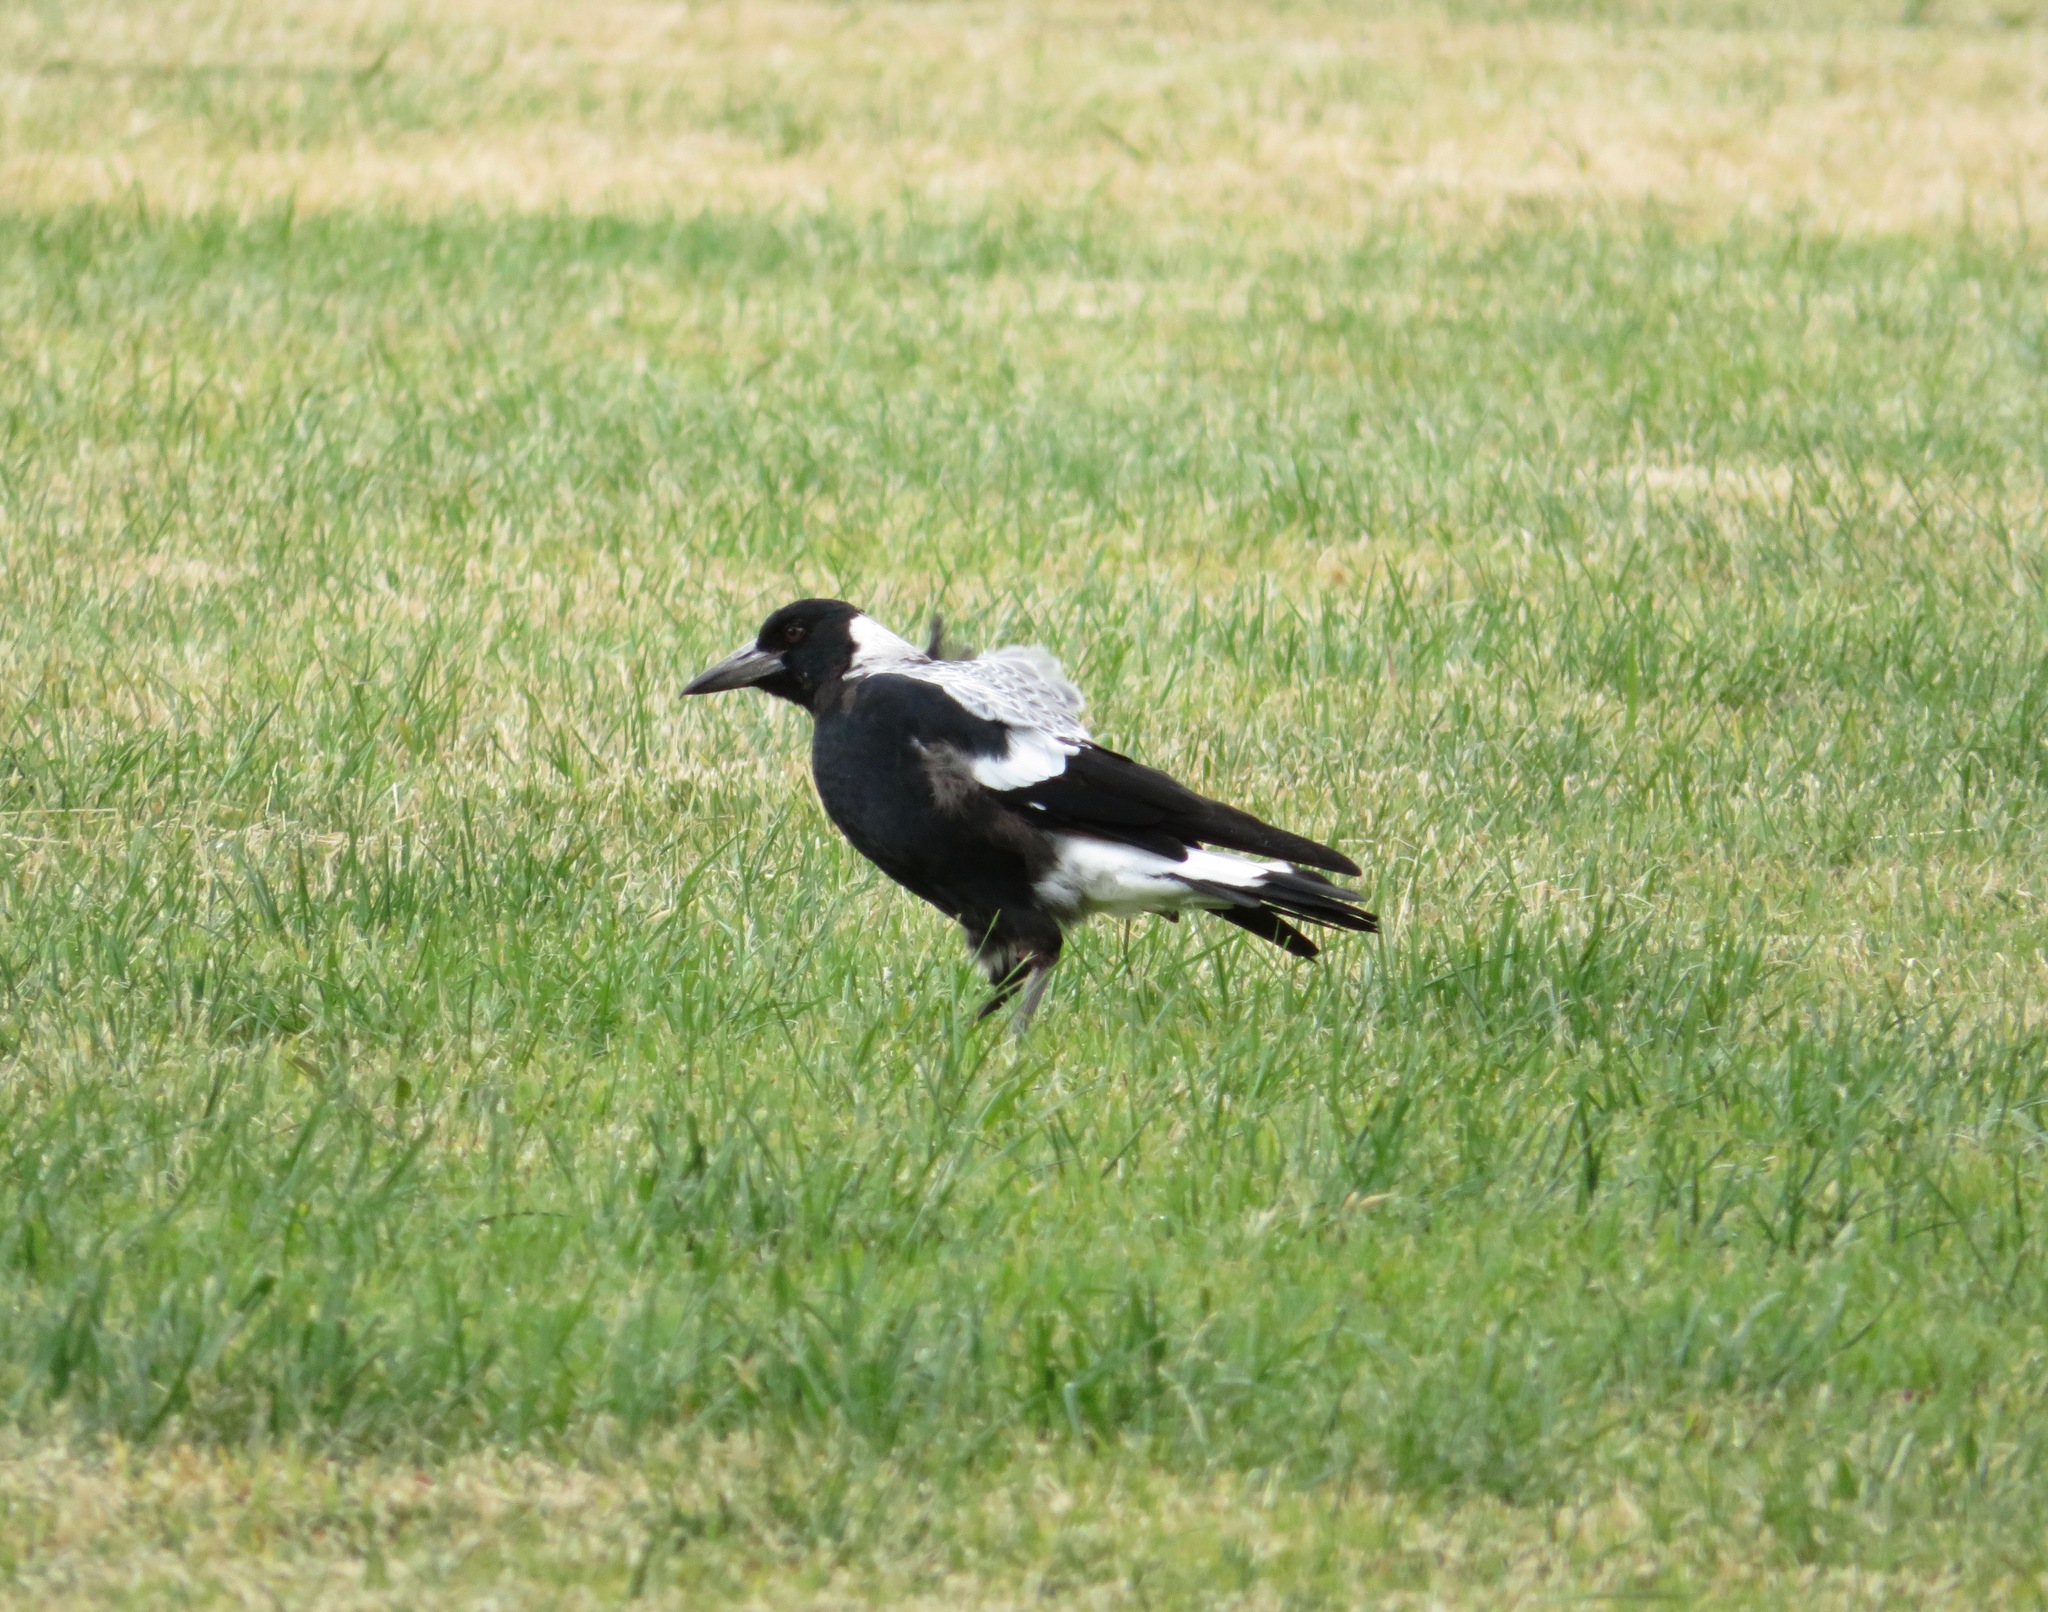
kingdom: Animalia
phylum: Chordata
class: Aves
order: Passeriformes
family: Cracticidae
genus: Gymnorhina
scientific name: Gymnorhina tibicen
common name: Australian magpie
